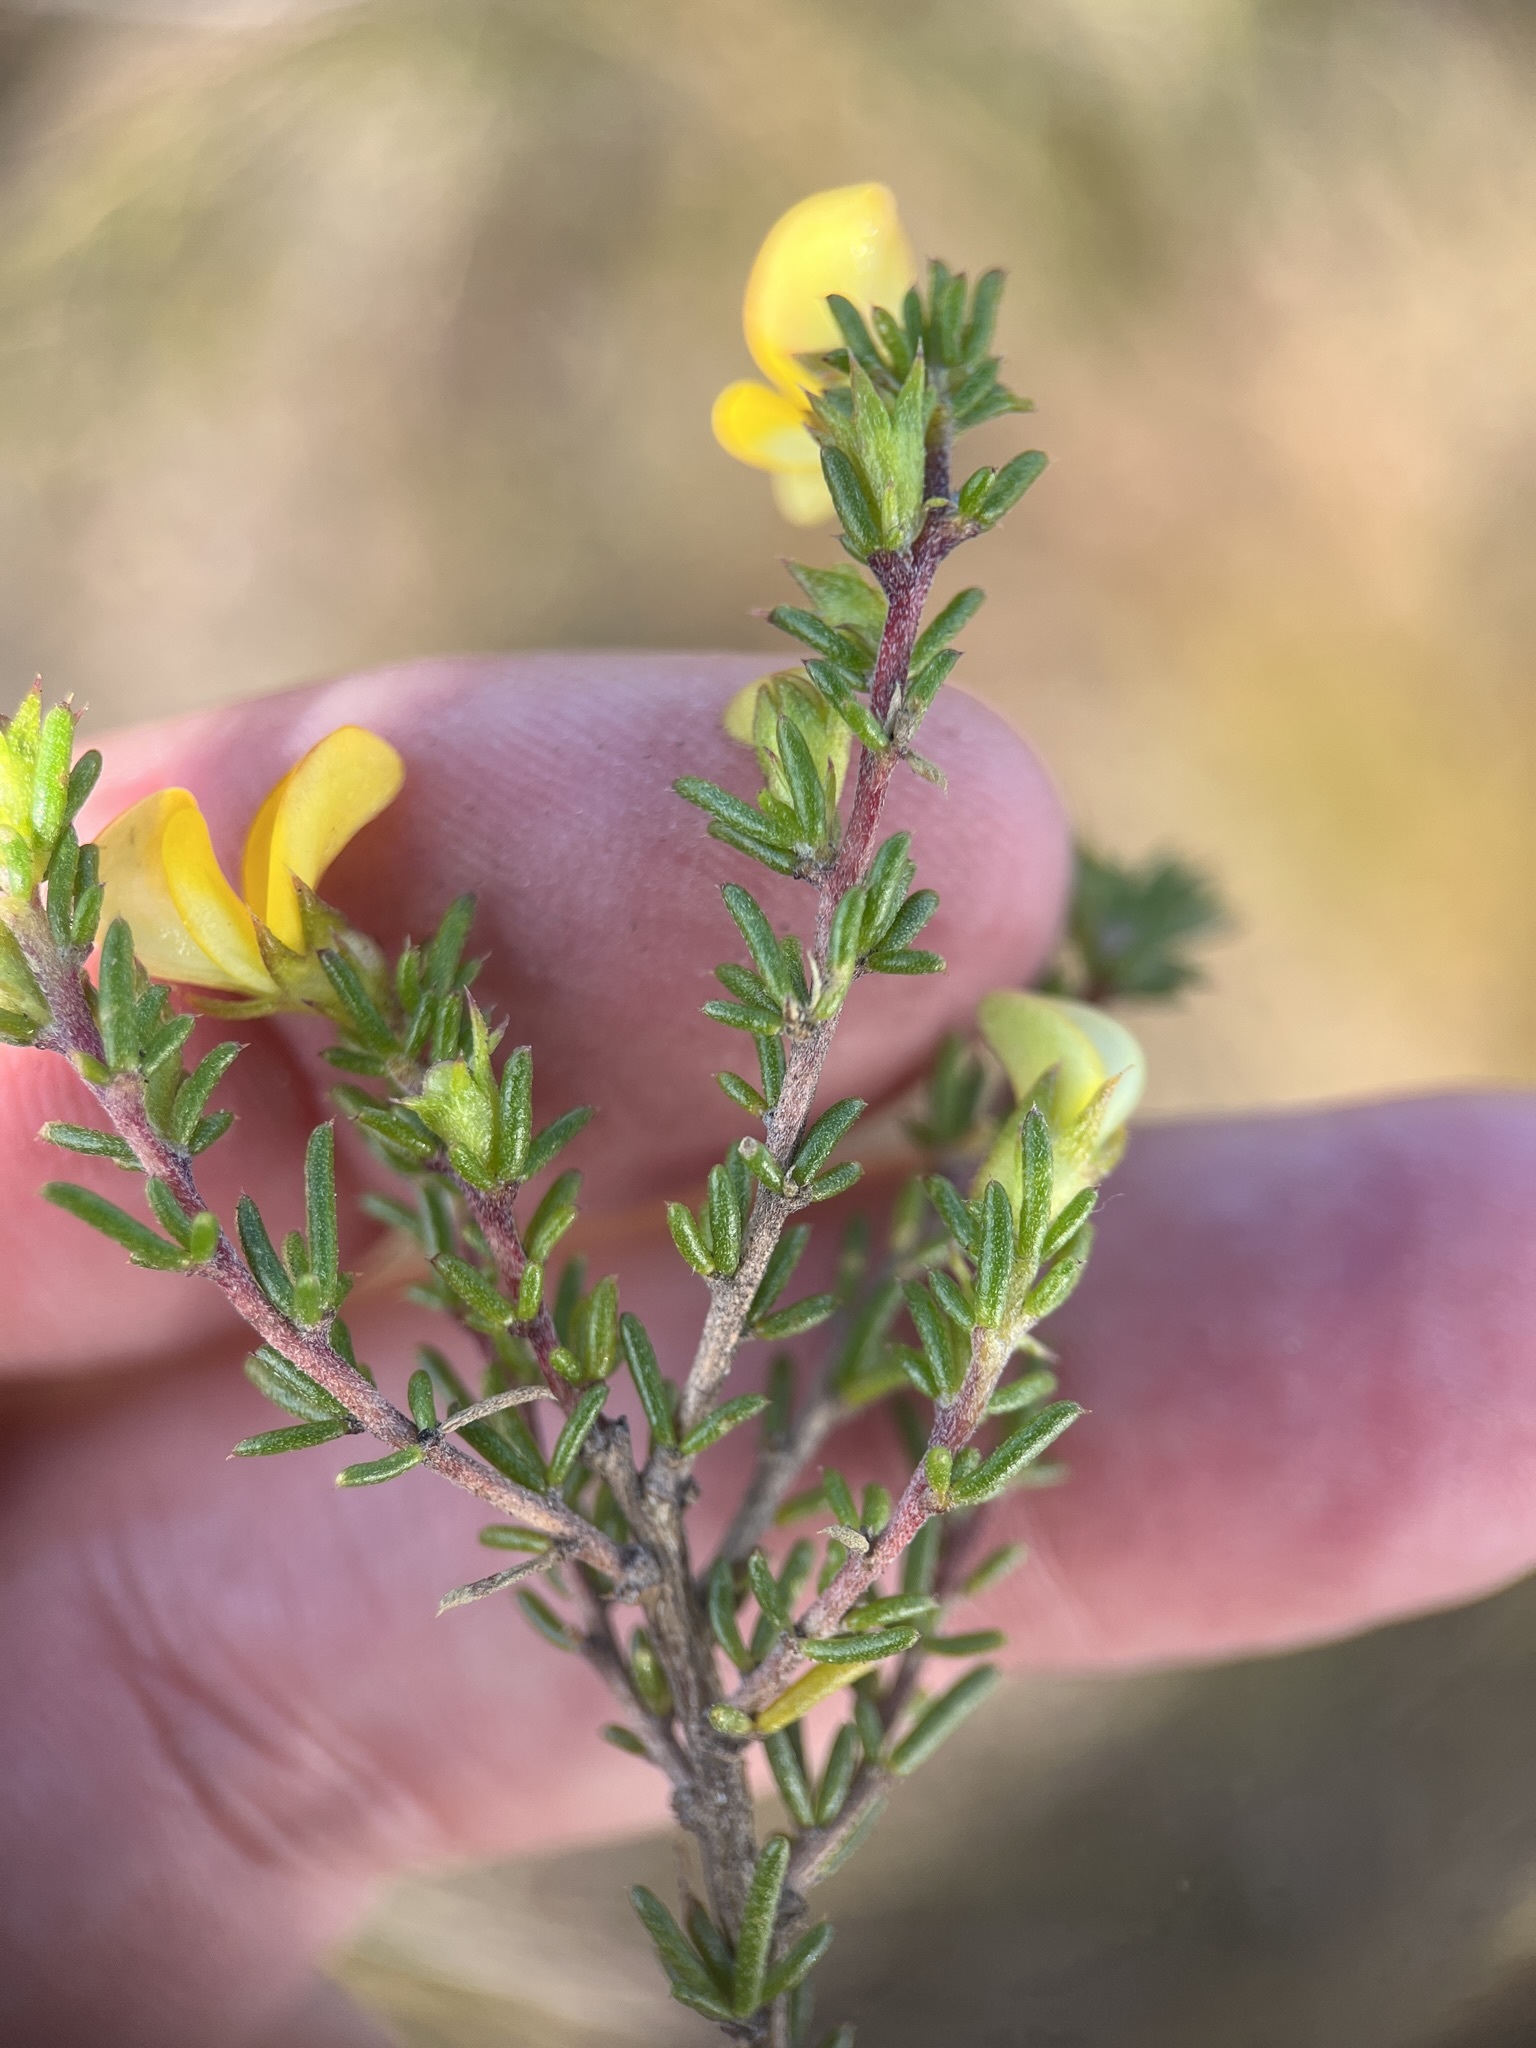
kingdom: Plantae
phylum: Tracheophyta
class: Magnoliopsida
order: Fabales
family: Fabaceae
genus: Aspalathus
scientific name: Aspalathus abietina
